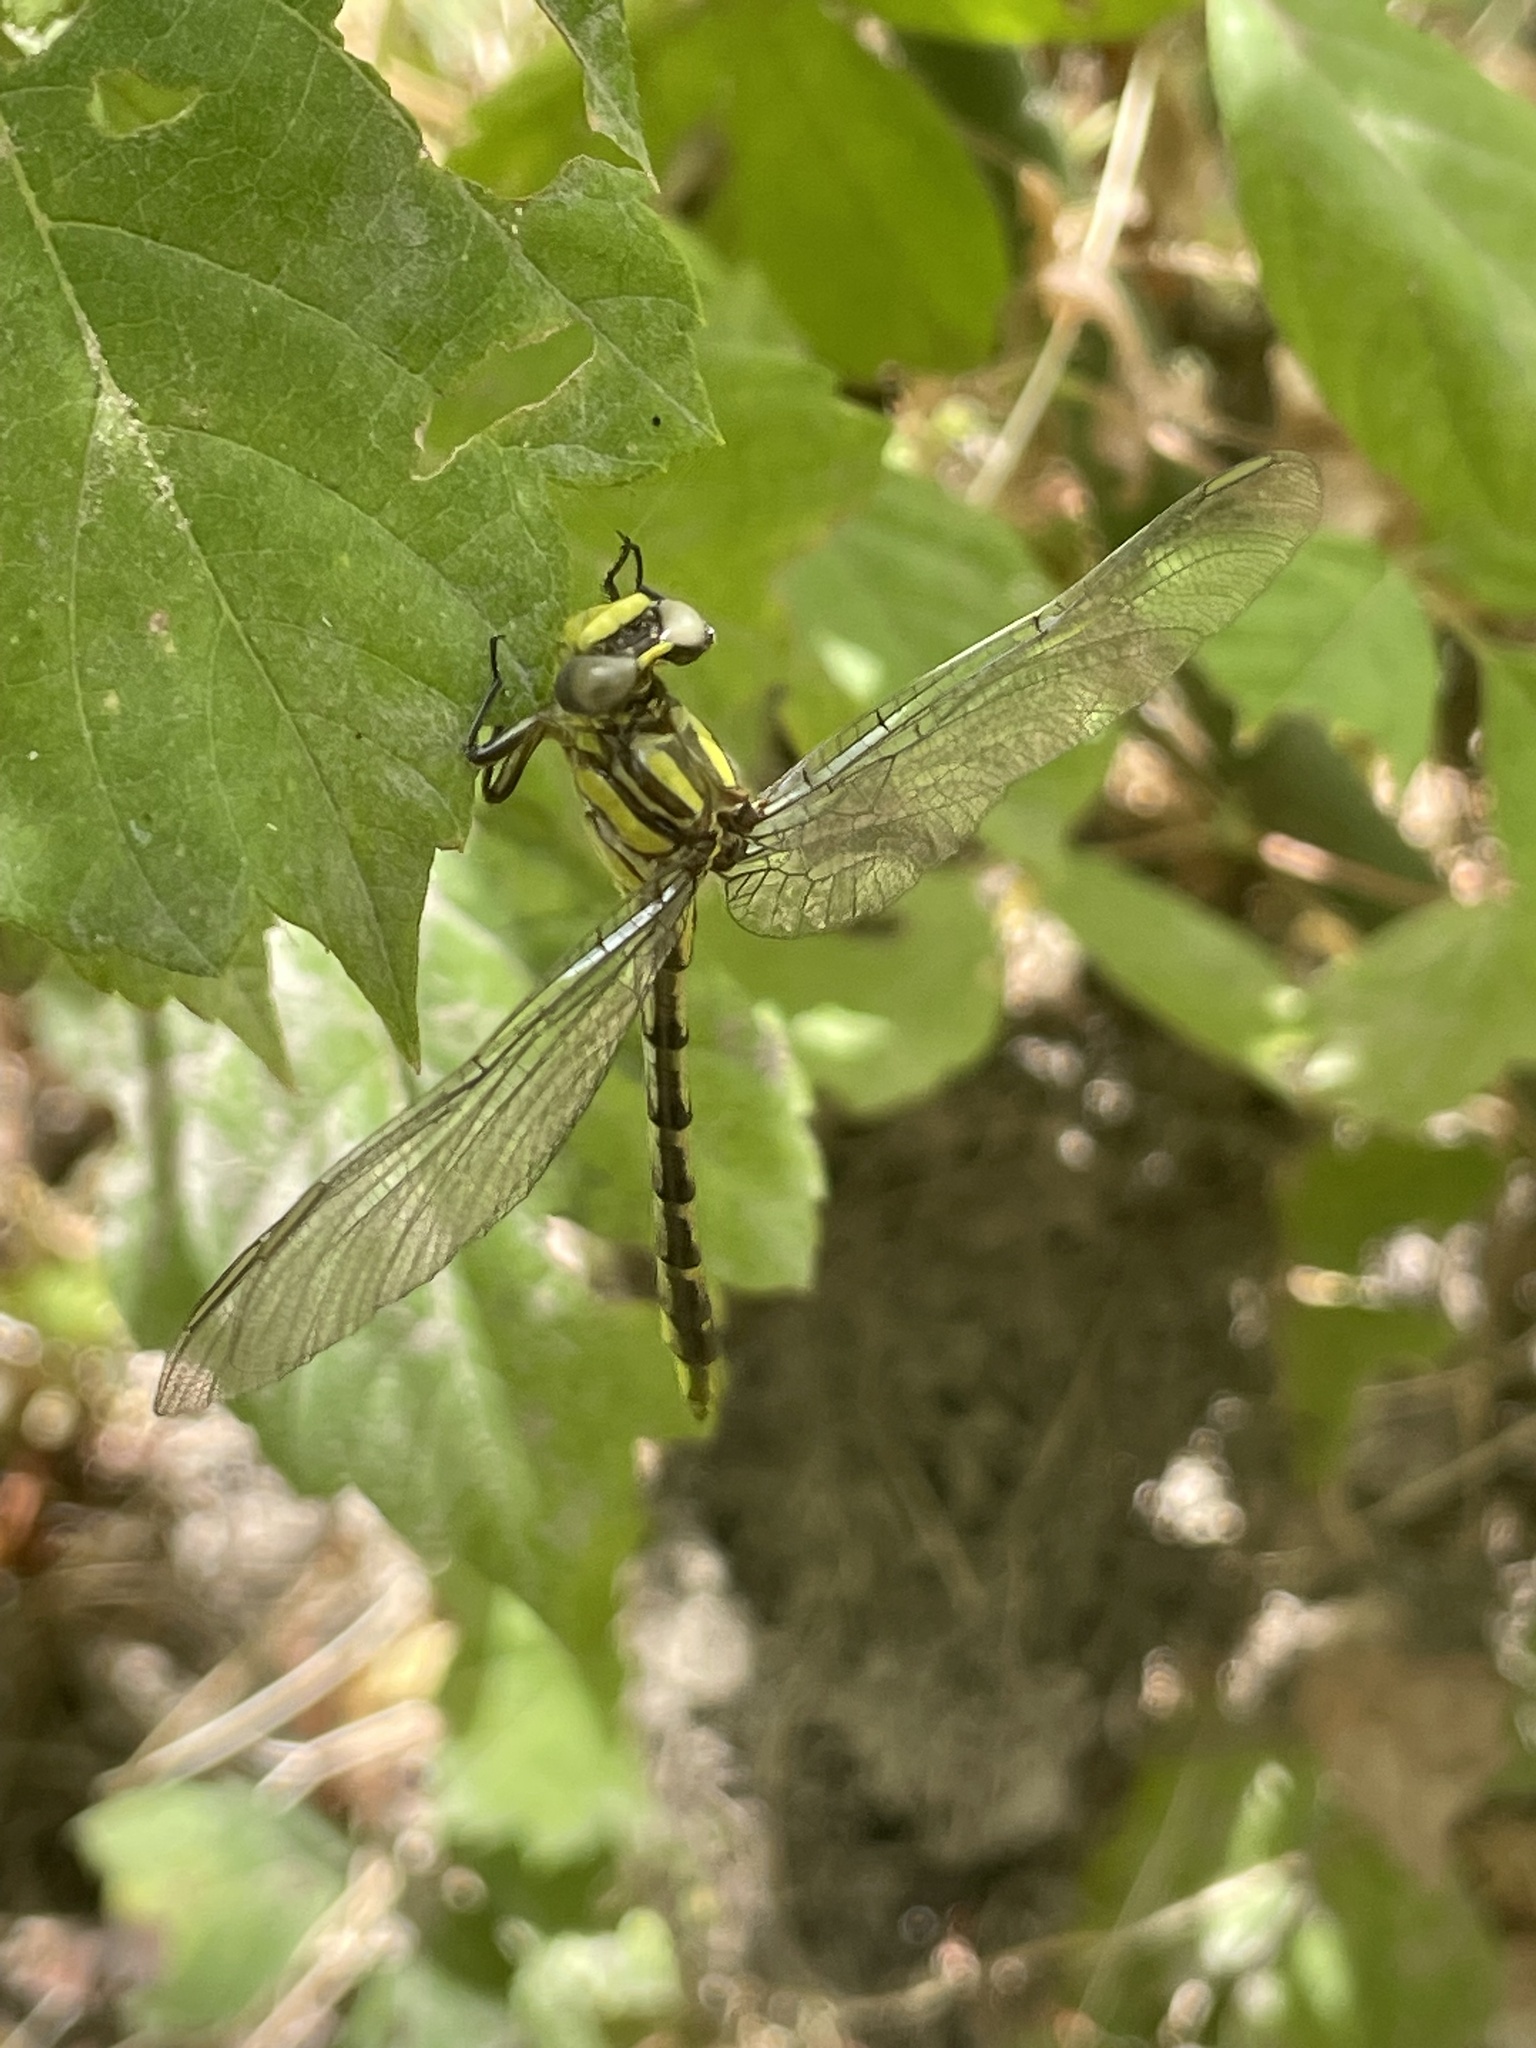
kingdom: Animalia
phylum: Arthropoda
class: Insecta
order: Odonata
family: Gomphidae
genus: Phanogomphus
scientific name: Phanogomphus militaris
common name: Sulphur-tipped clubtail
